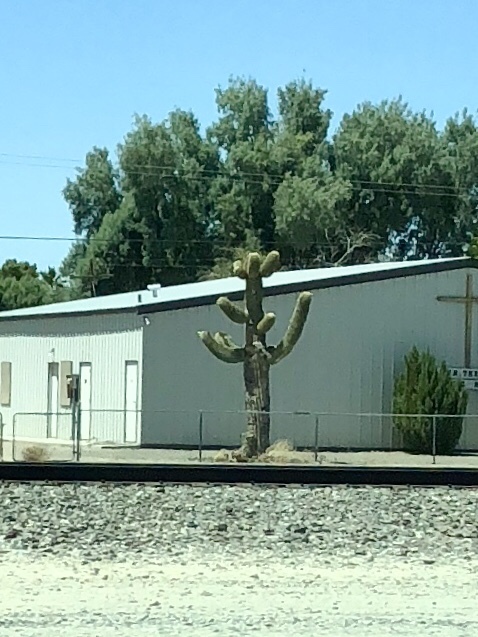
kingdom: Plantae
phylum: Tracheophyta
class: Magnoliopsida
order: Caryophyllales
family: Cactaceae
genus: Carnegiea
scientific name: Carnegiea gigantea
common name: Saguaro
